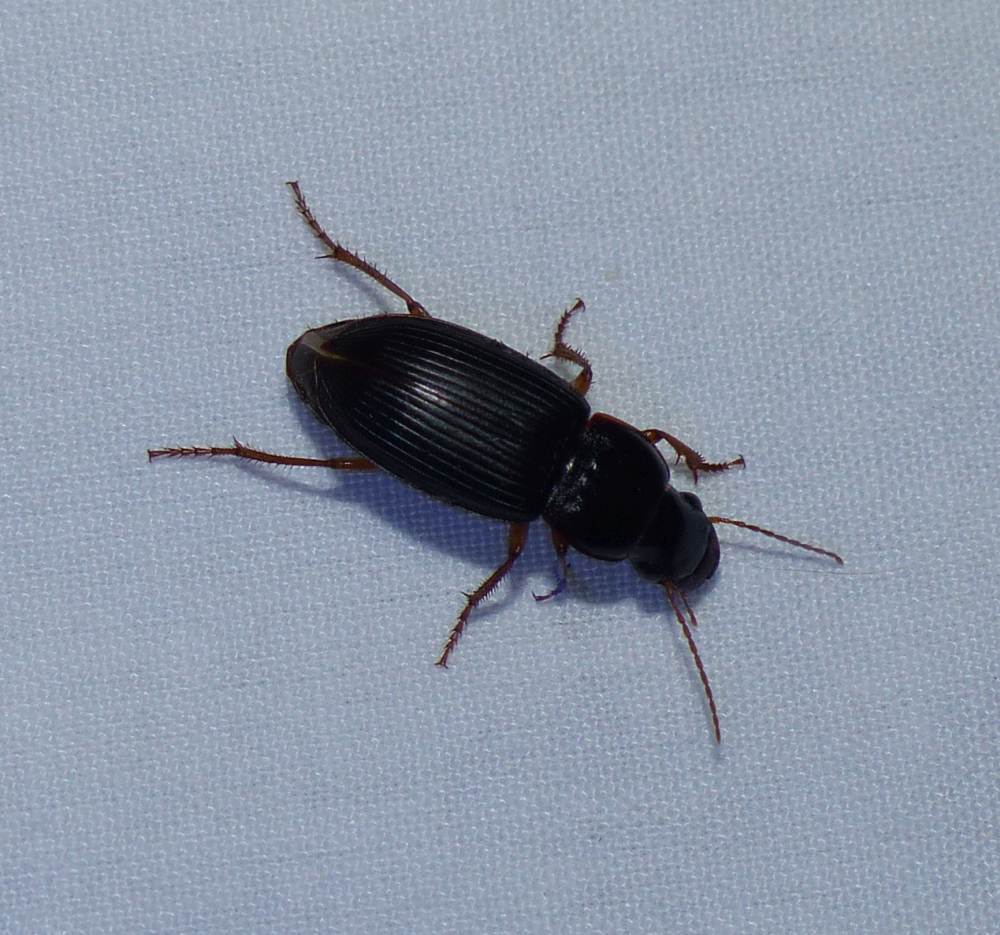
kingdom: Animalia
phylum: Arthropoda
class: Insecta
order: Coleoptera
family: Carabidae
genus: Harpalus
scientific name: Harpalus pensylvanicus
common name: Pennsylvania dingy ground beetle
